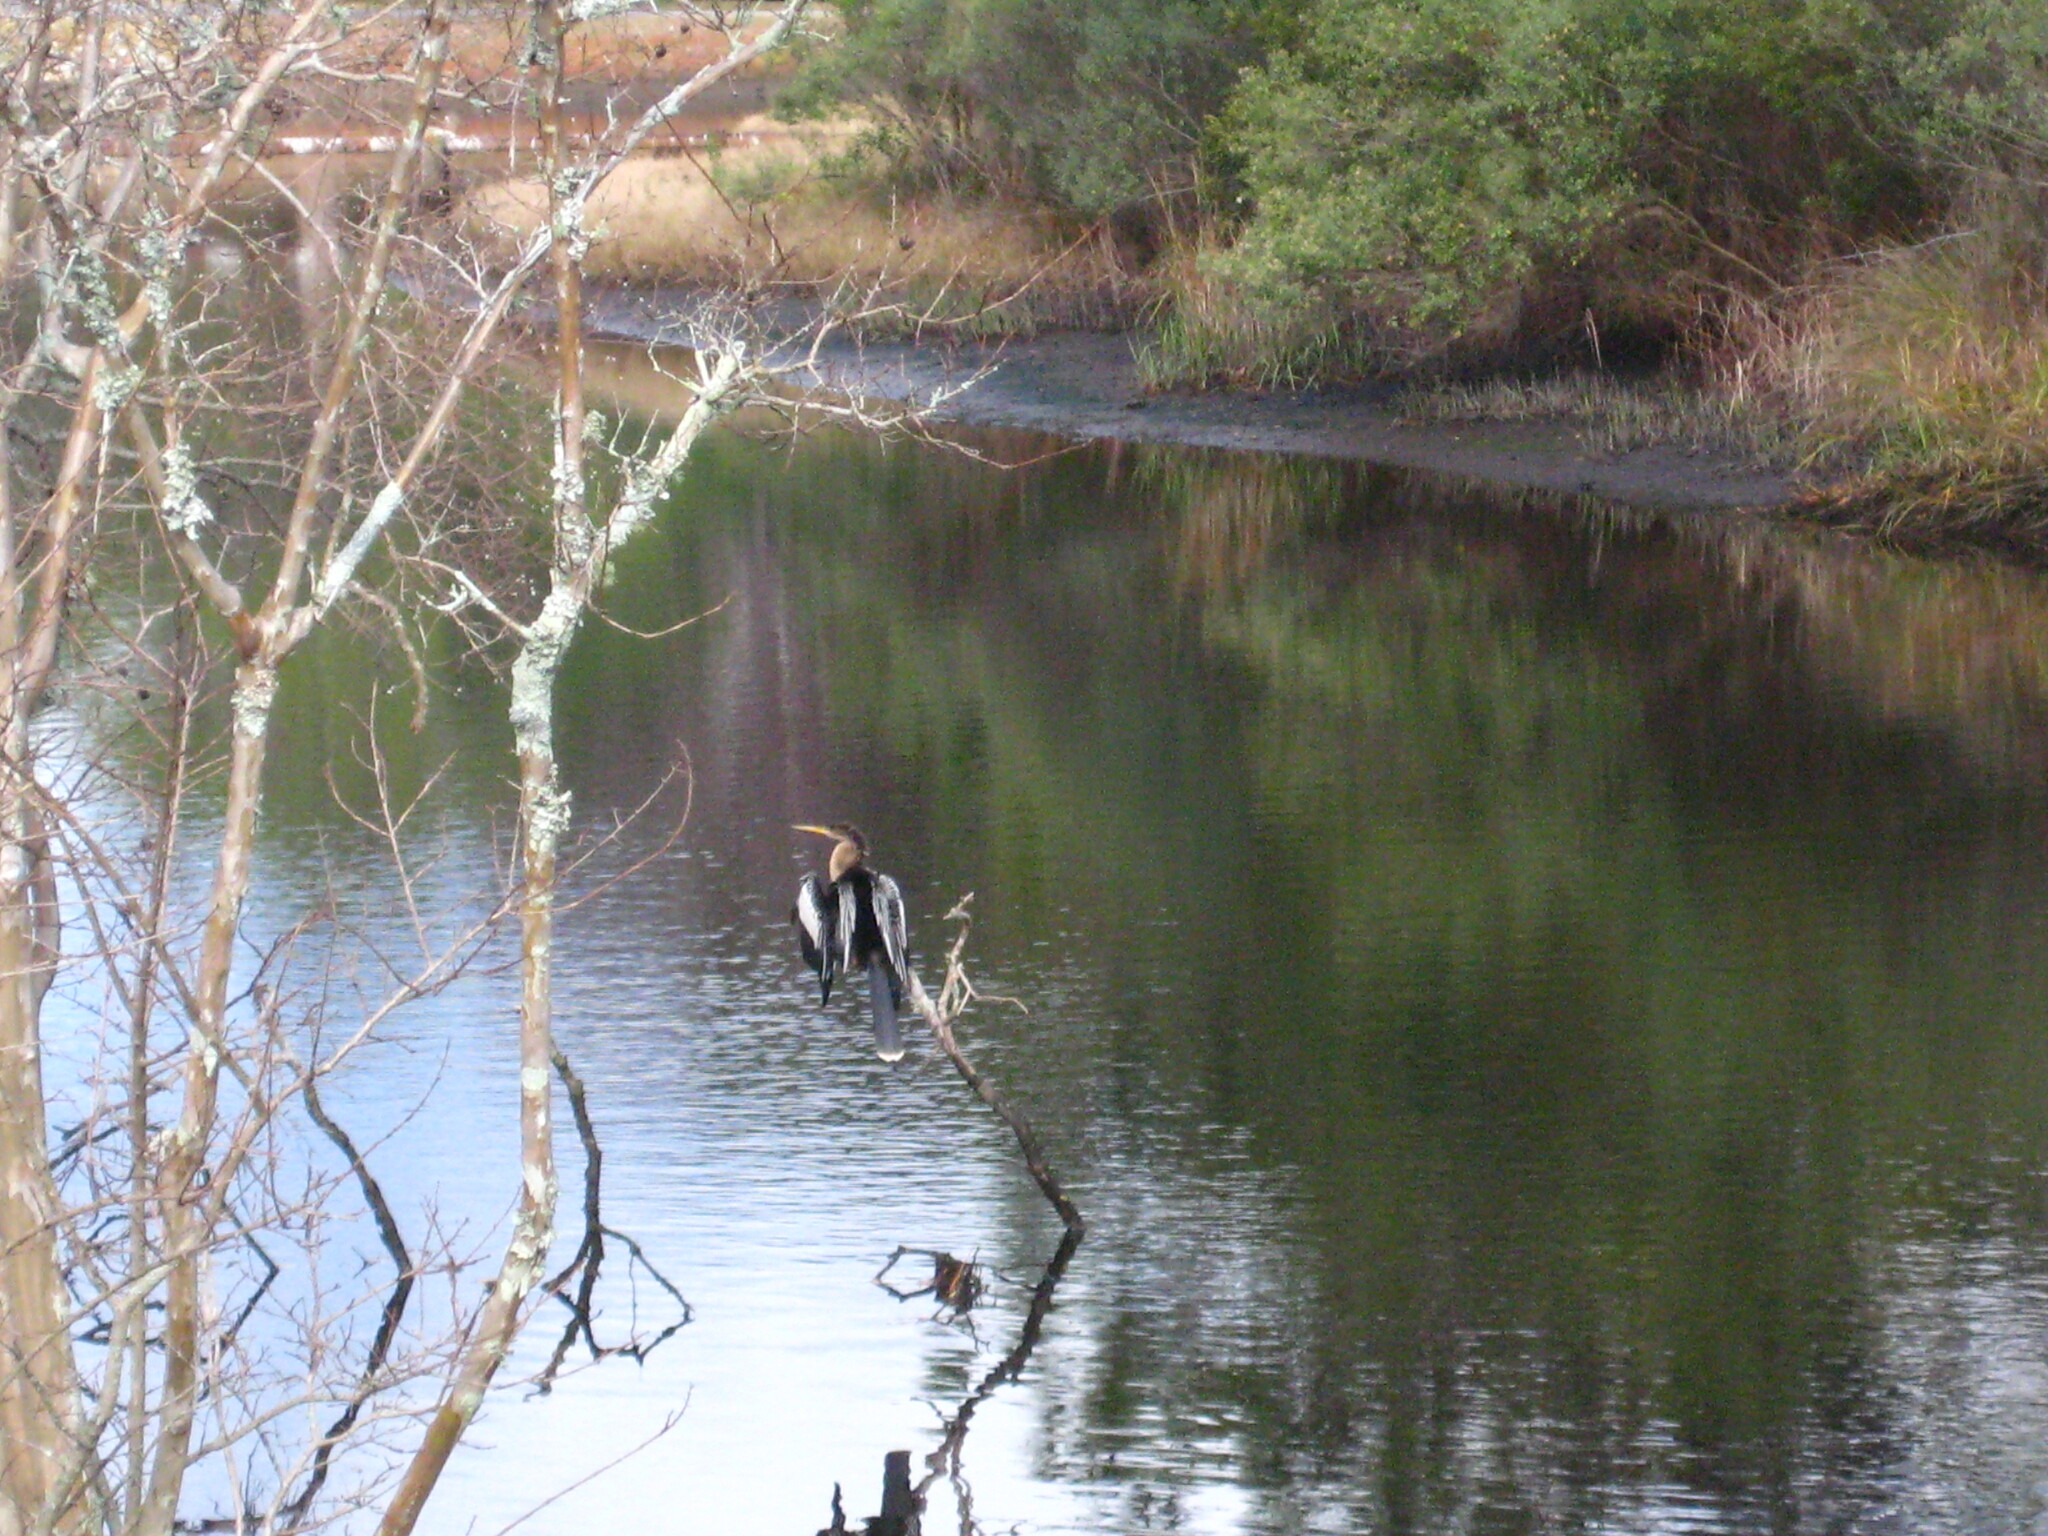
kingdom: Animalia
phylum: Chordata
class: Aves
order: Suliformes
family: Anhingidae
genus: Anhinga
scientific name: Anhinga anhinga
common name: Anhinga
